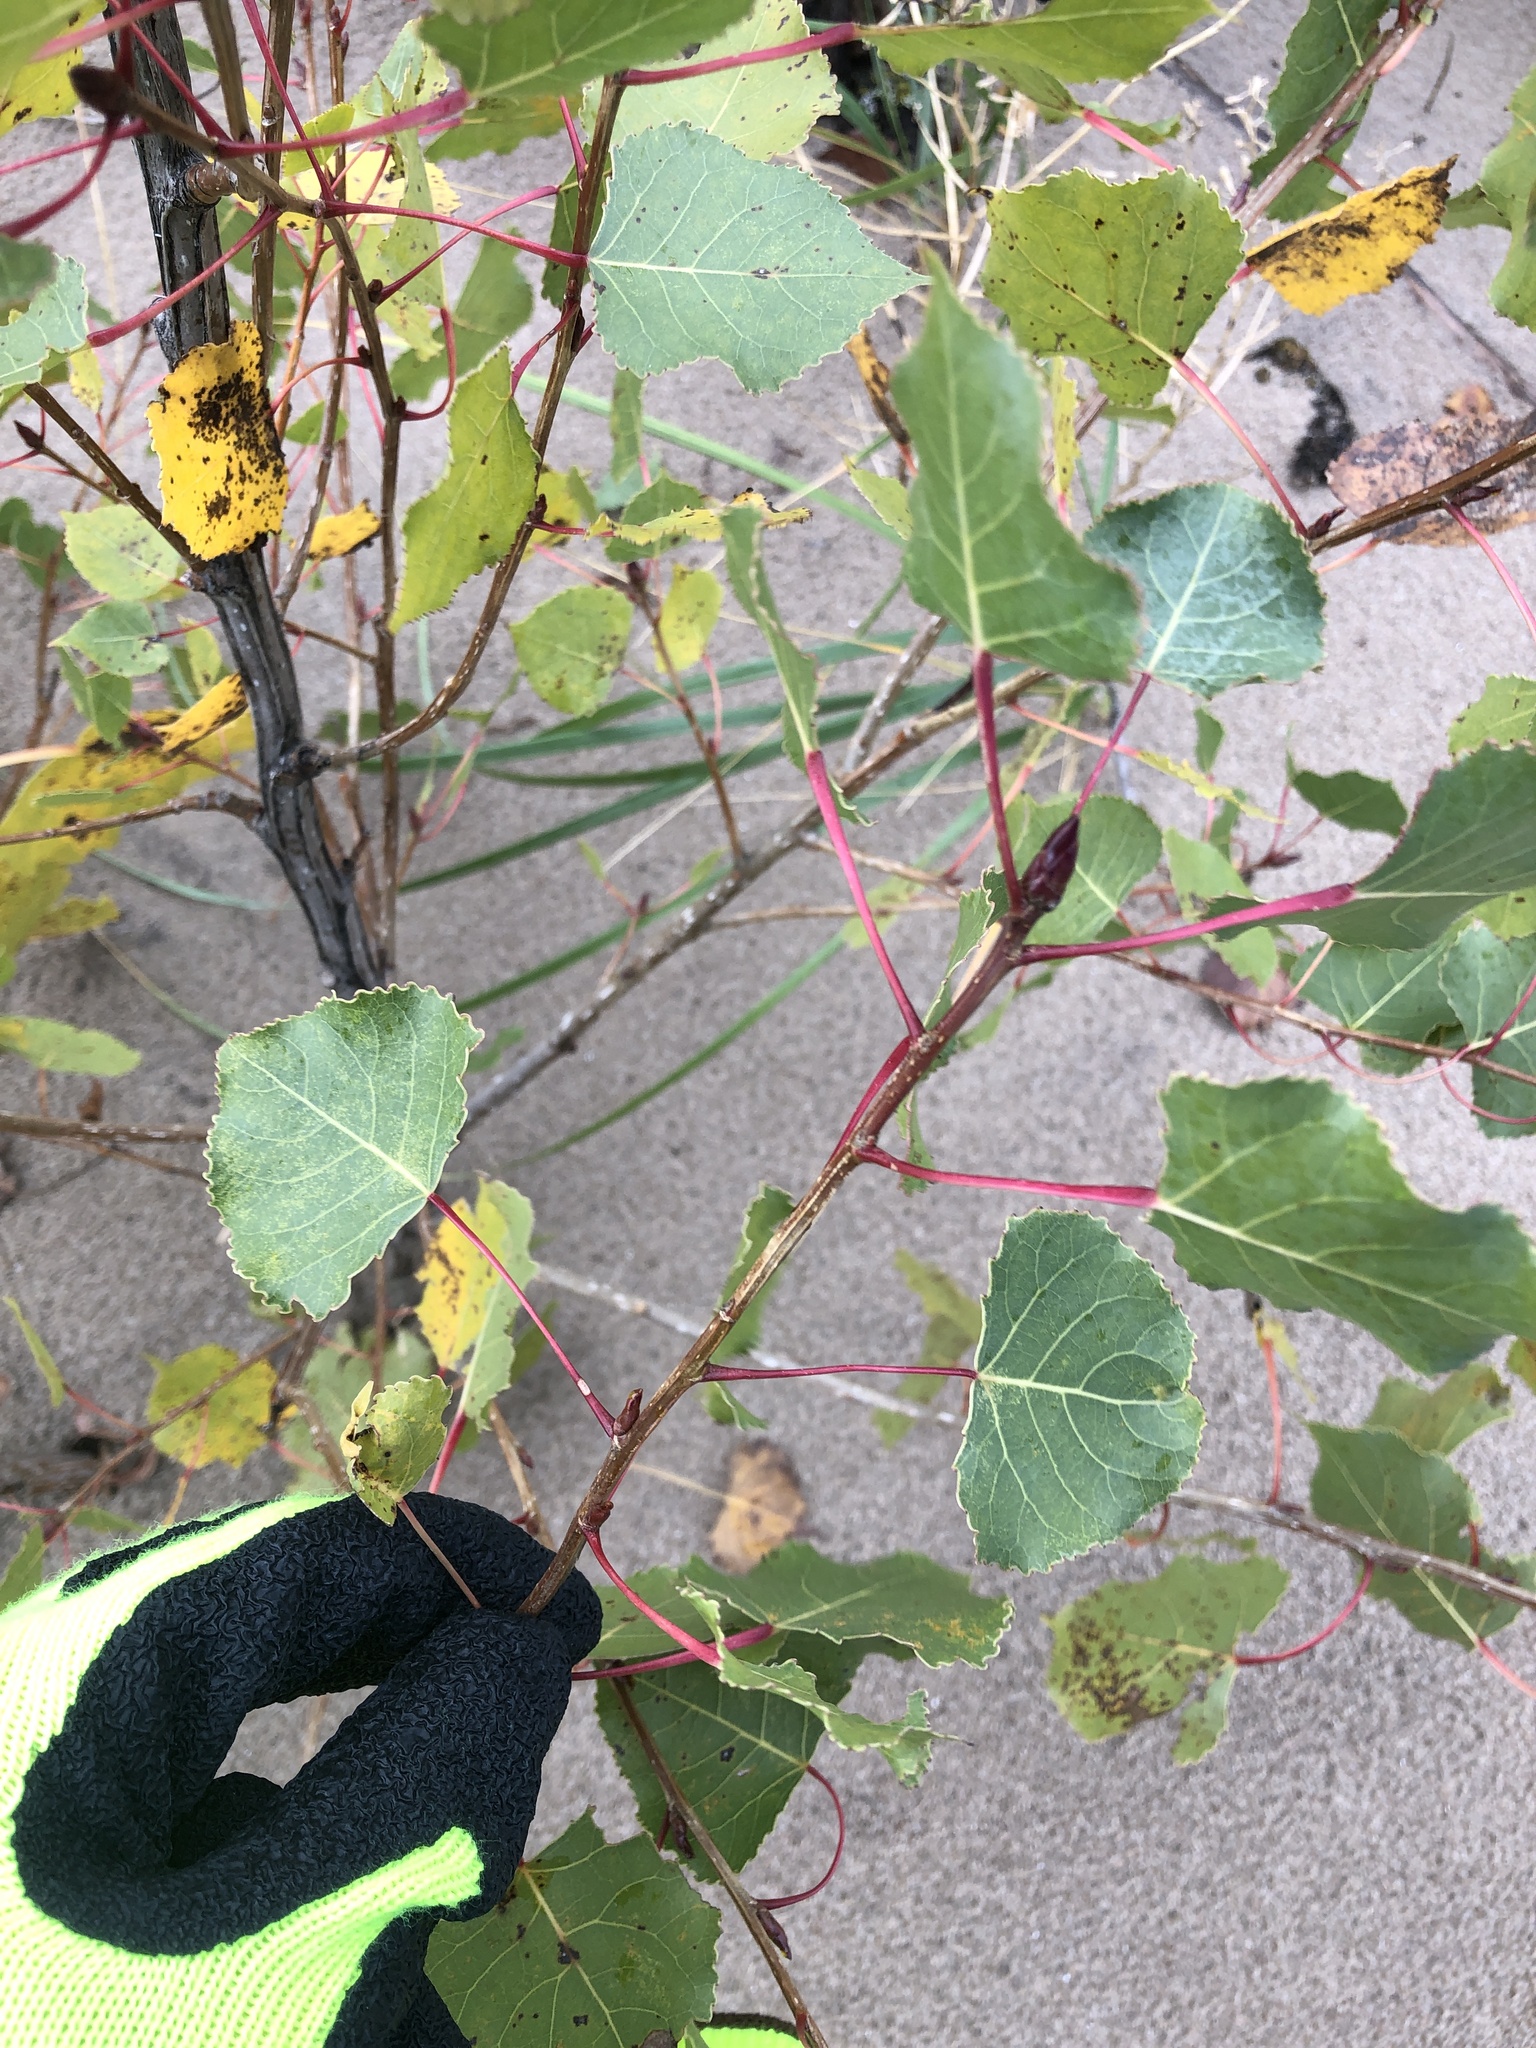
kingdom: Plantae
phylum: Tracheophyta
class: Magnoliopsida
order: Malpighiales
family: Salicaceae
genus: Populus
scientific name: Populus deltoides
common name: Eastern cottonwood
